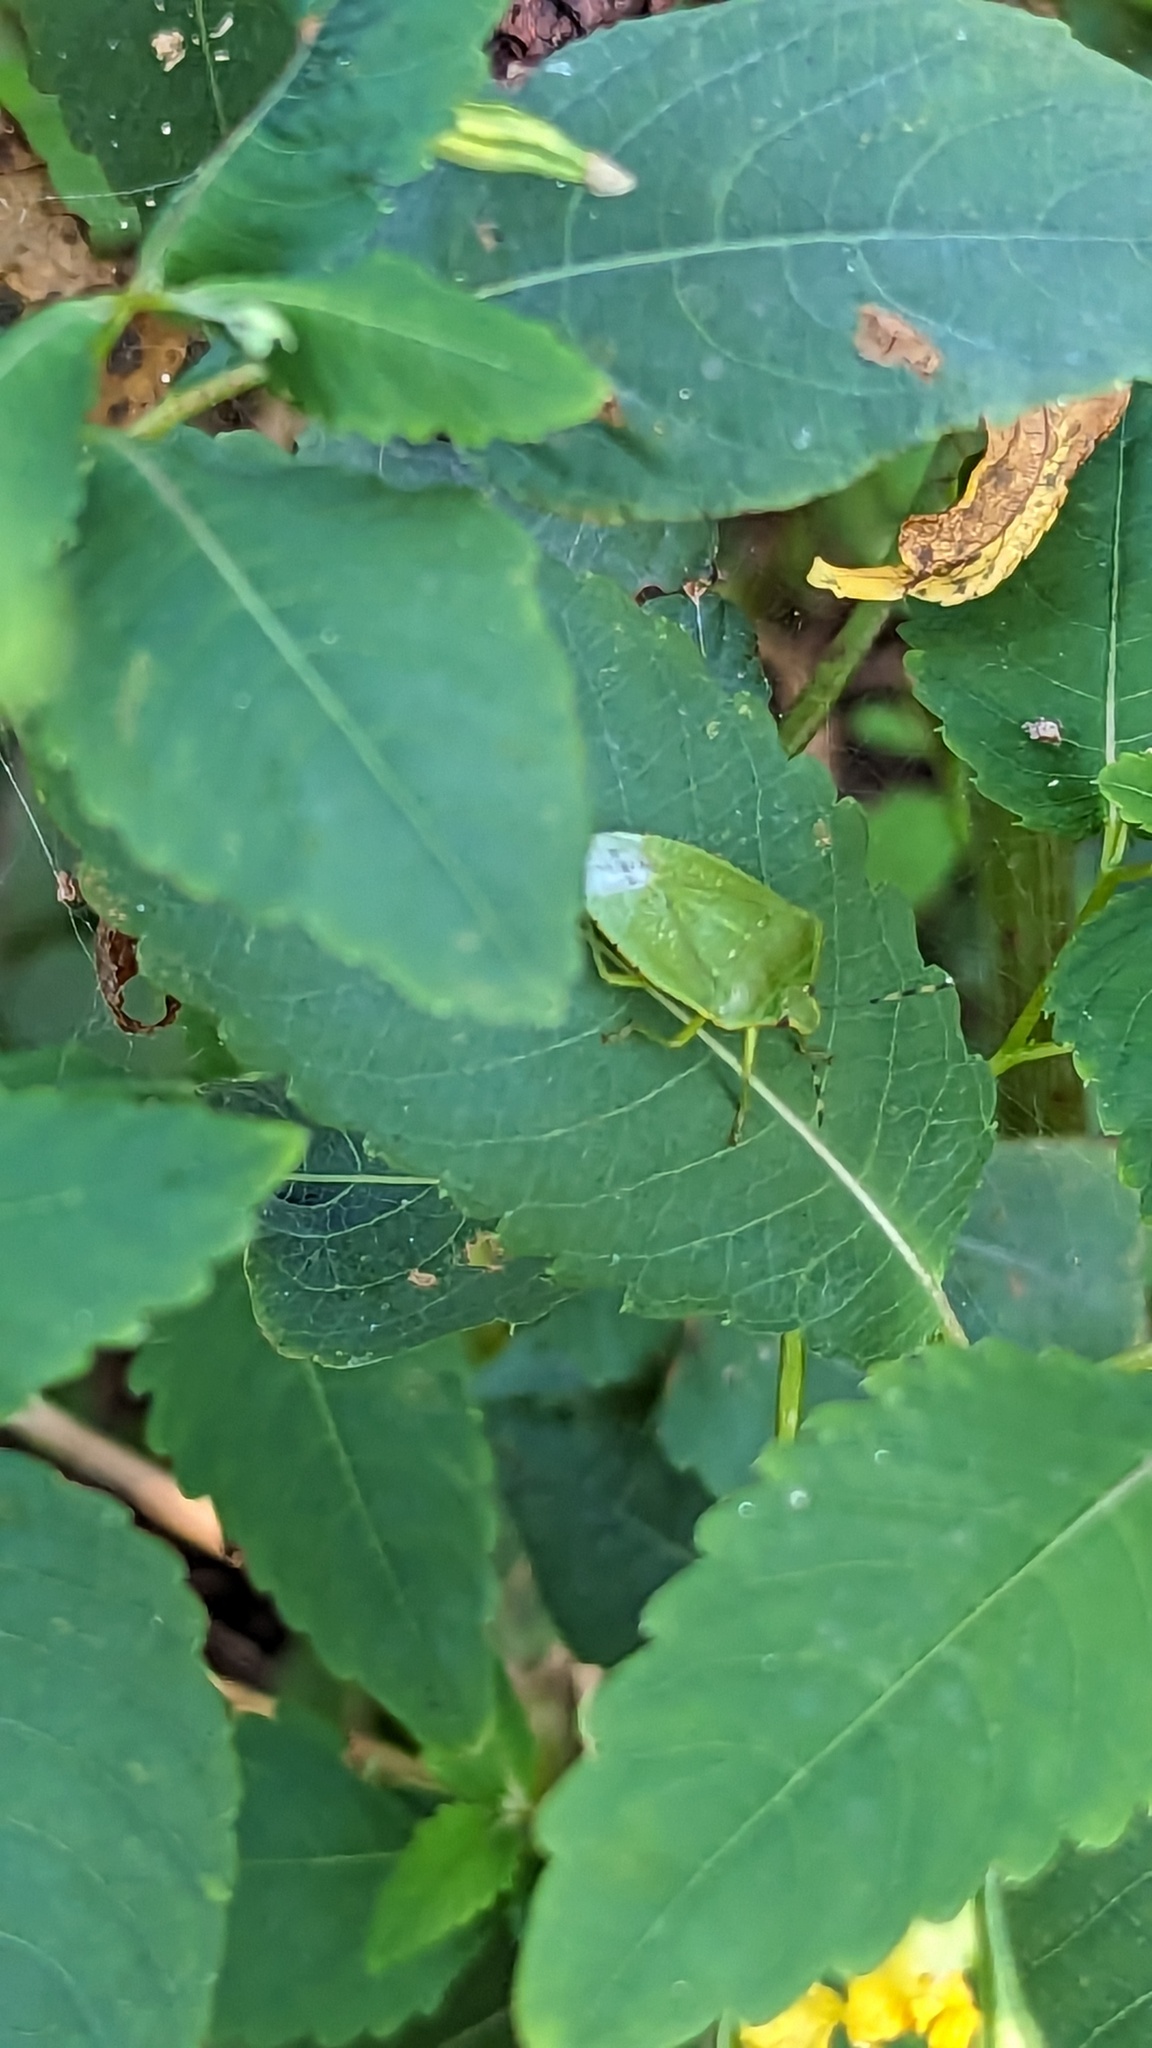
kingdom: Animalia
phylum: Arthropoda
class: Insecta
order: Hemiptera
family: Pentatomidae
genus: Chinavia
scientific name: Chinavia hilaris
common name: Green stink bug
